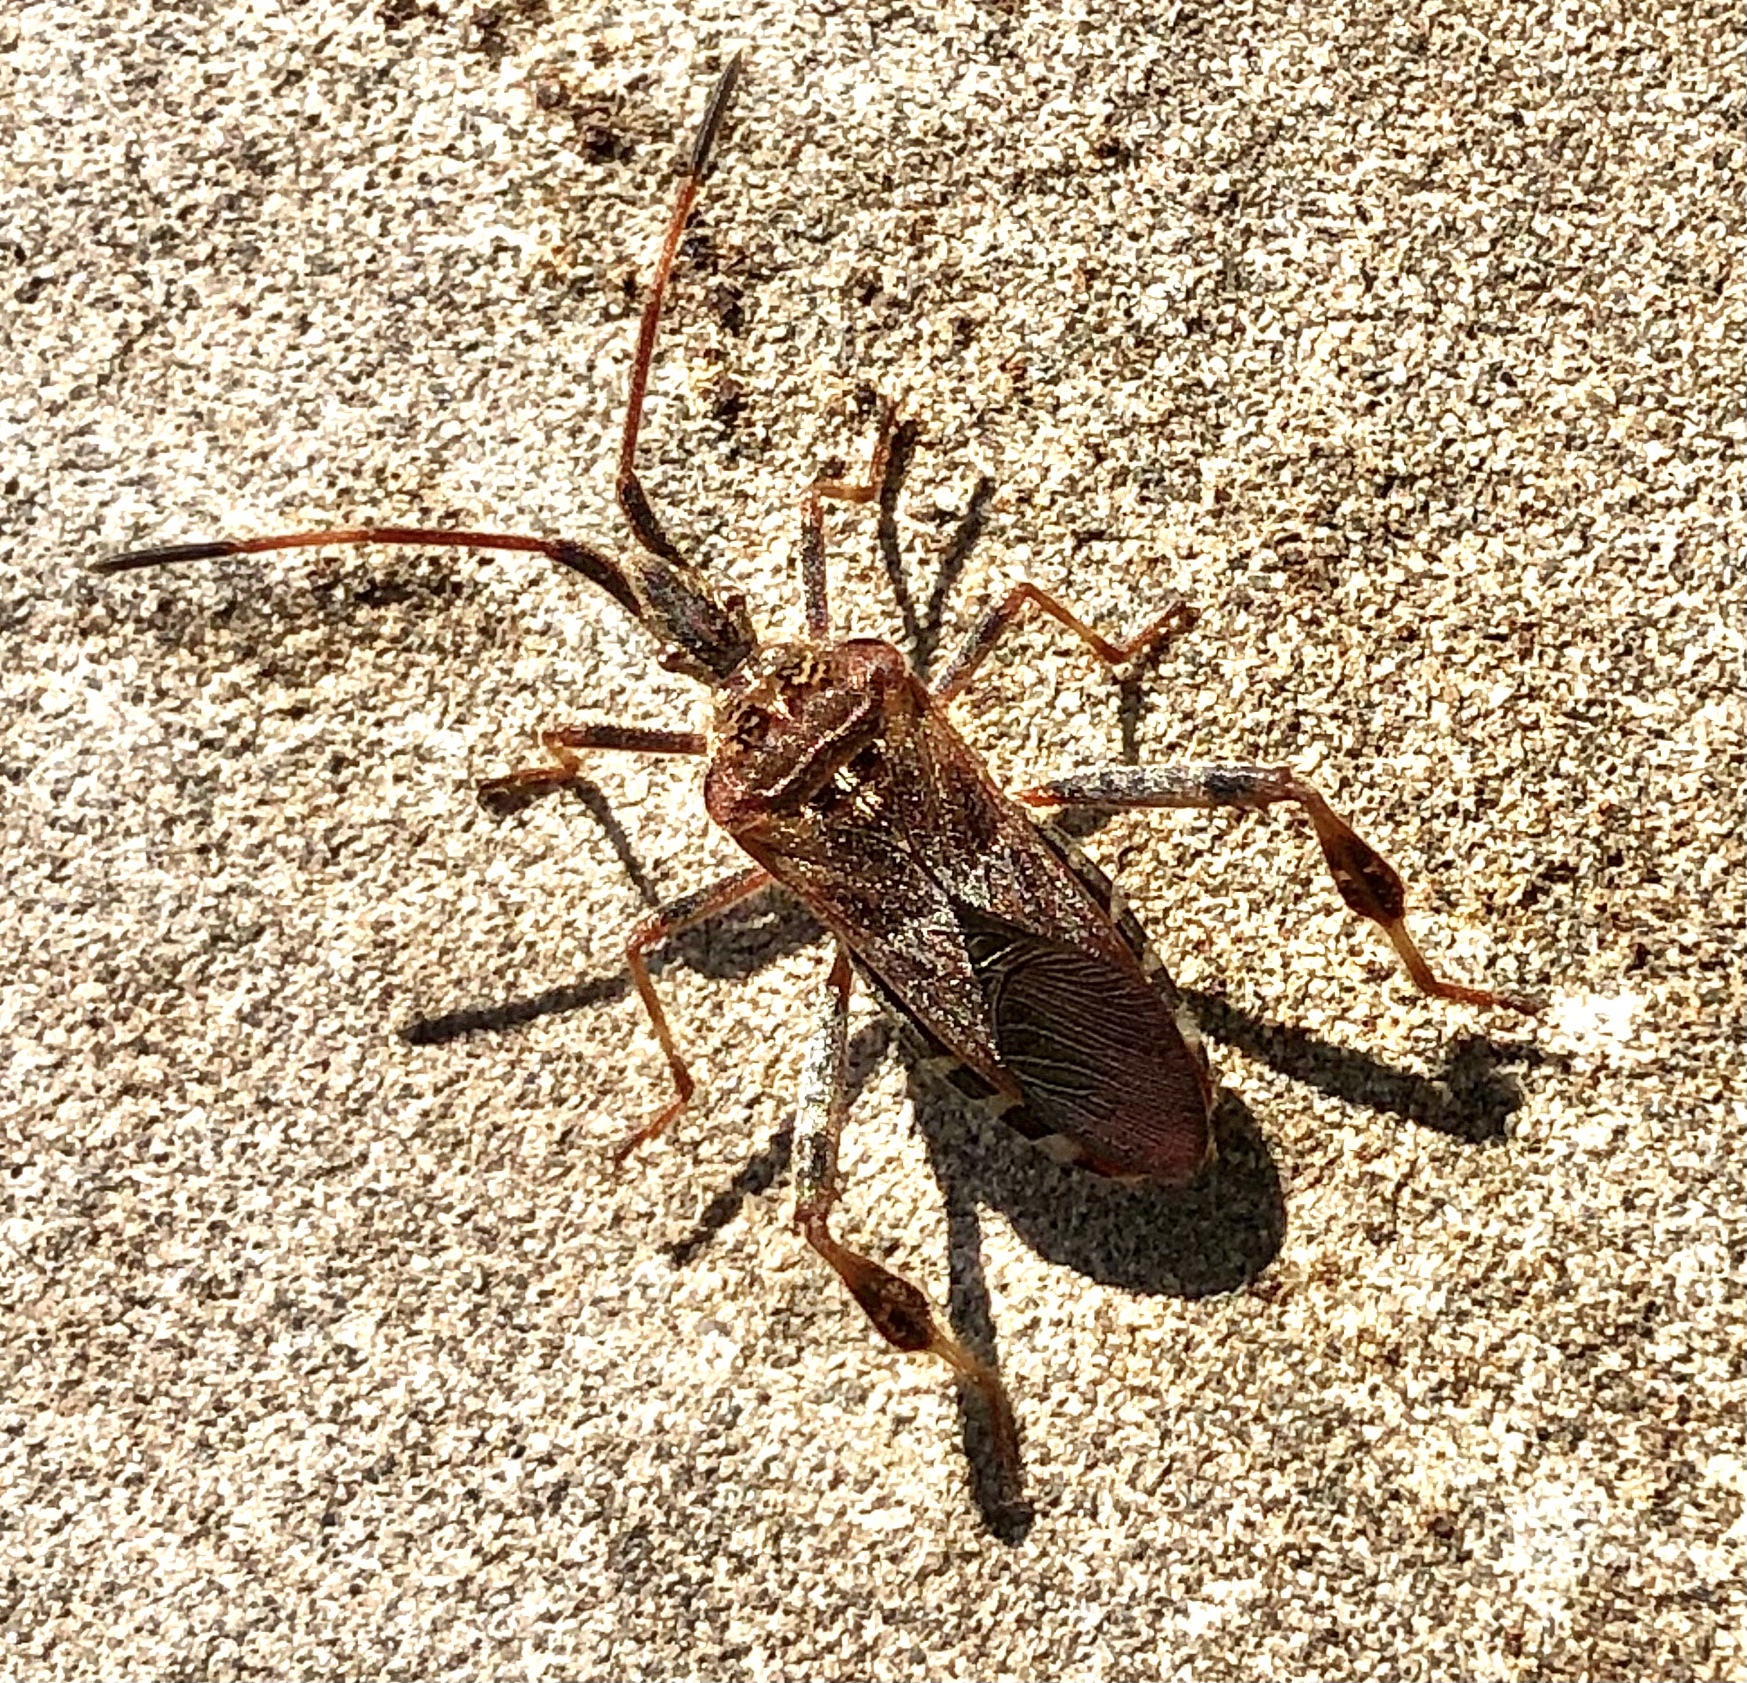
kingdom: Animalia
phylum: Arthropoda
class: Insecta
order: Hemiptera
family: Coreidae
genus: Leptoglossus
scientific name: Leptoglossus occidentalis
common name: Western conifer-seed bug
